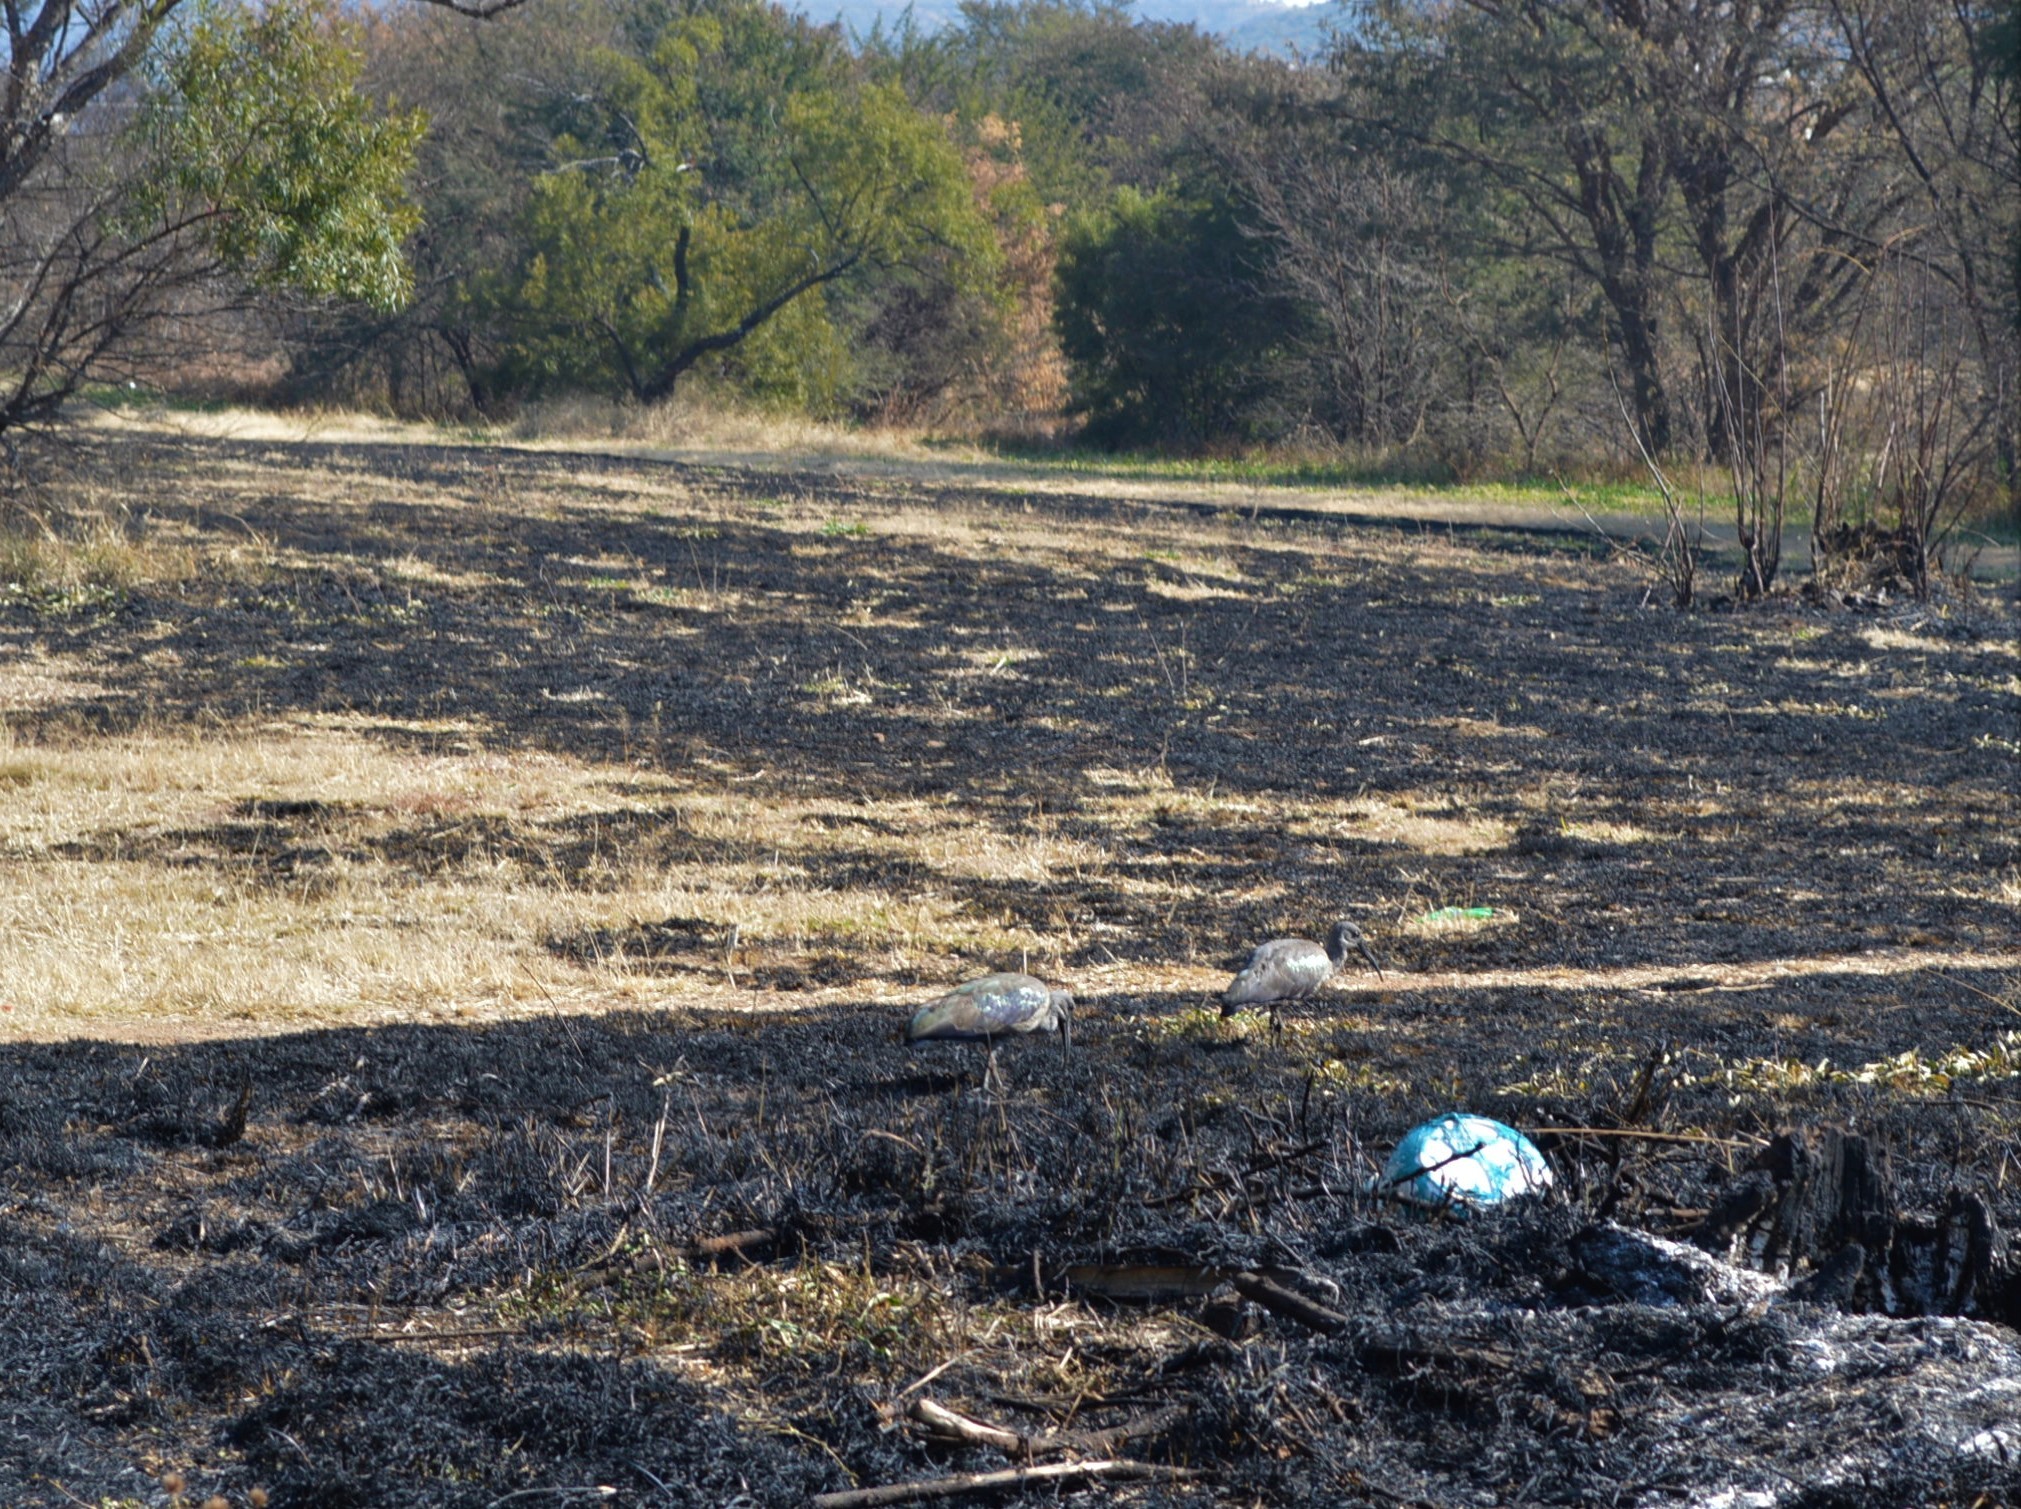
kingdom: Animalia
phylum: Chordata
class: Aves
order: Pelecaniformes
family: Threskiornithidae
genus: Bostrychia
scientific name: Bostrychia hagedash
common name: Hadada ibis
